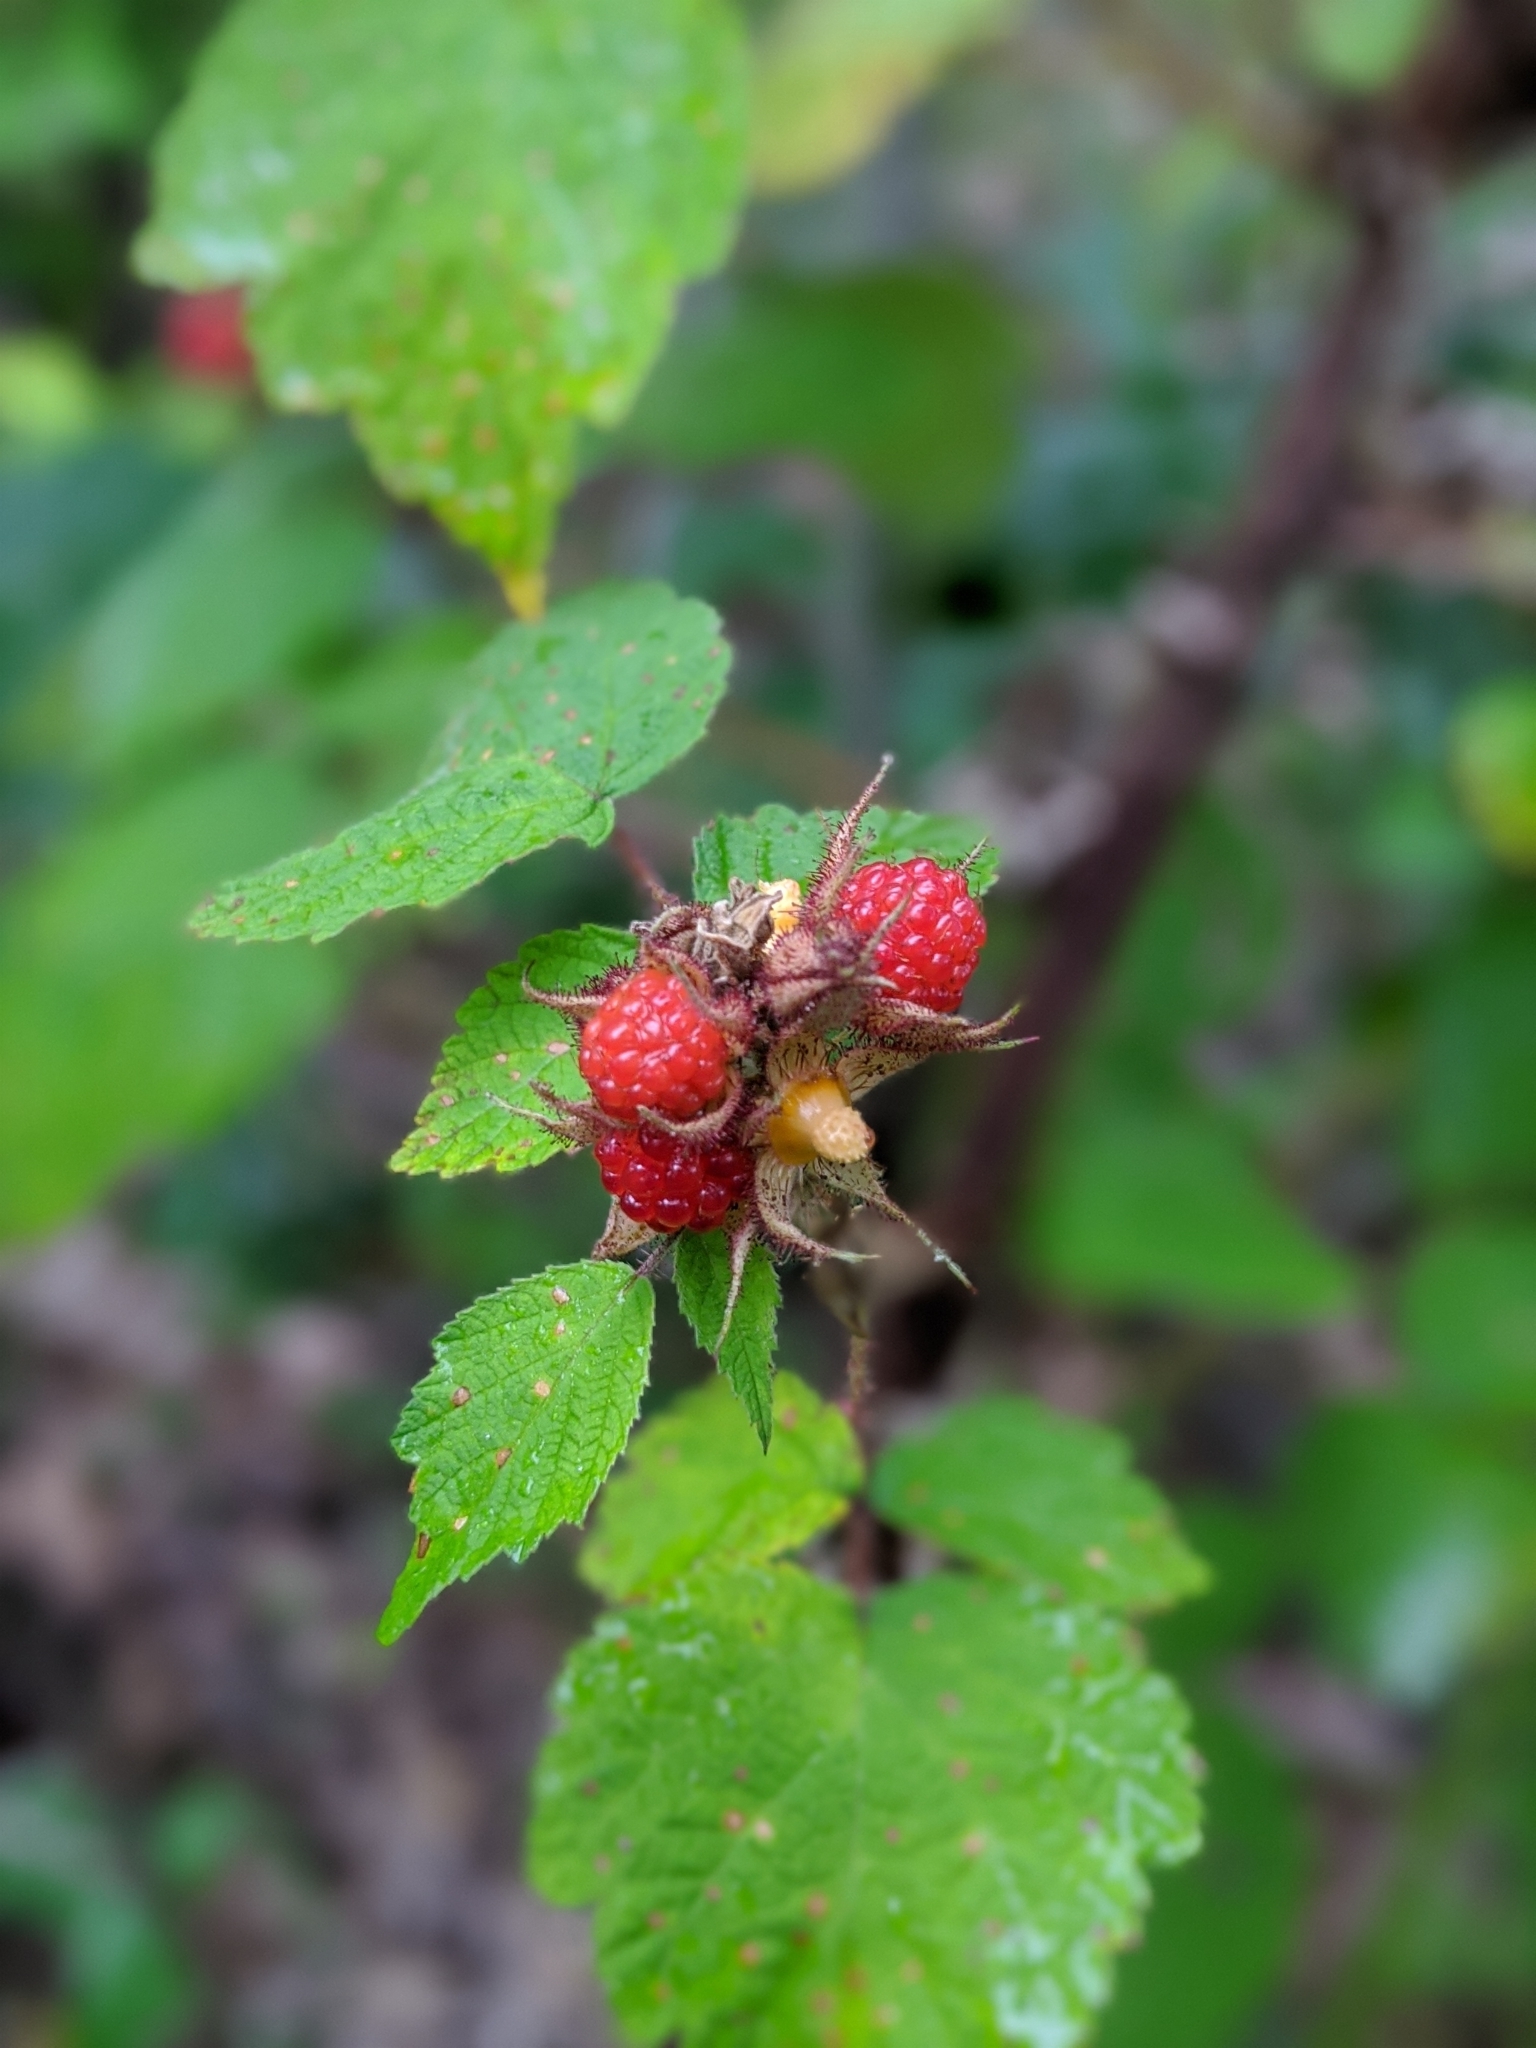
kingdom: Plantae
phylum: Tracheophyta
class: Magnoliopsida
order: Rosales
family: Rosaceae
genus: Rubus
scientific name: Rubus phoenicolasius
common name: Japanese wineberry
